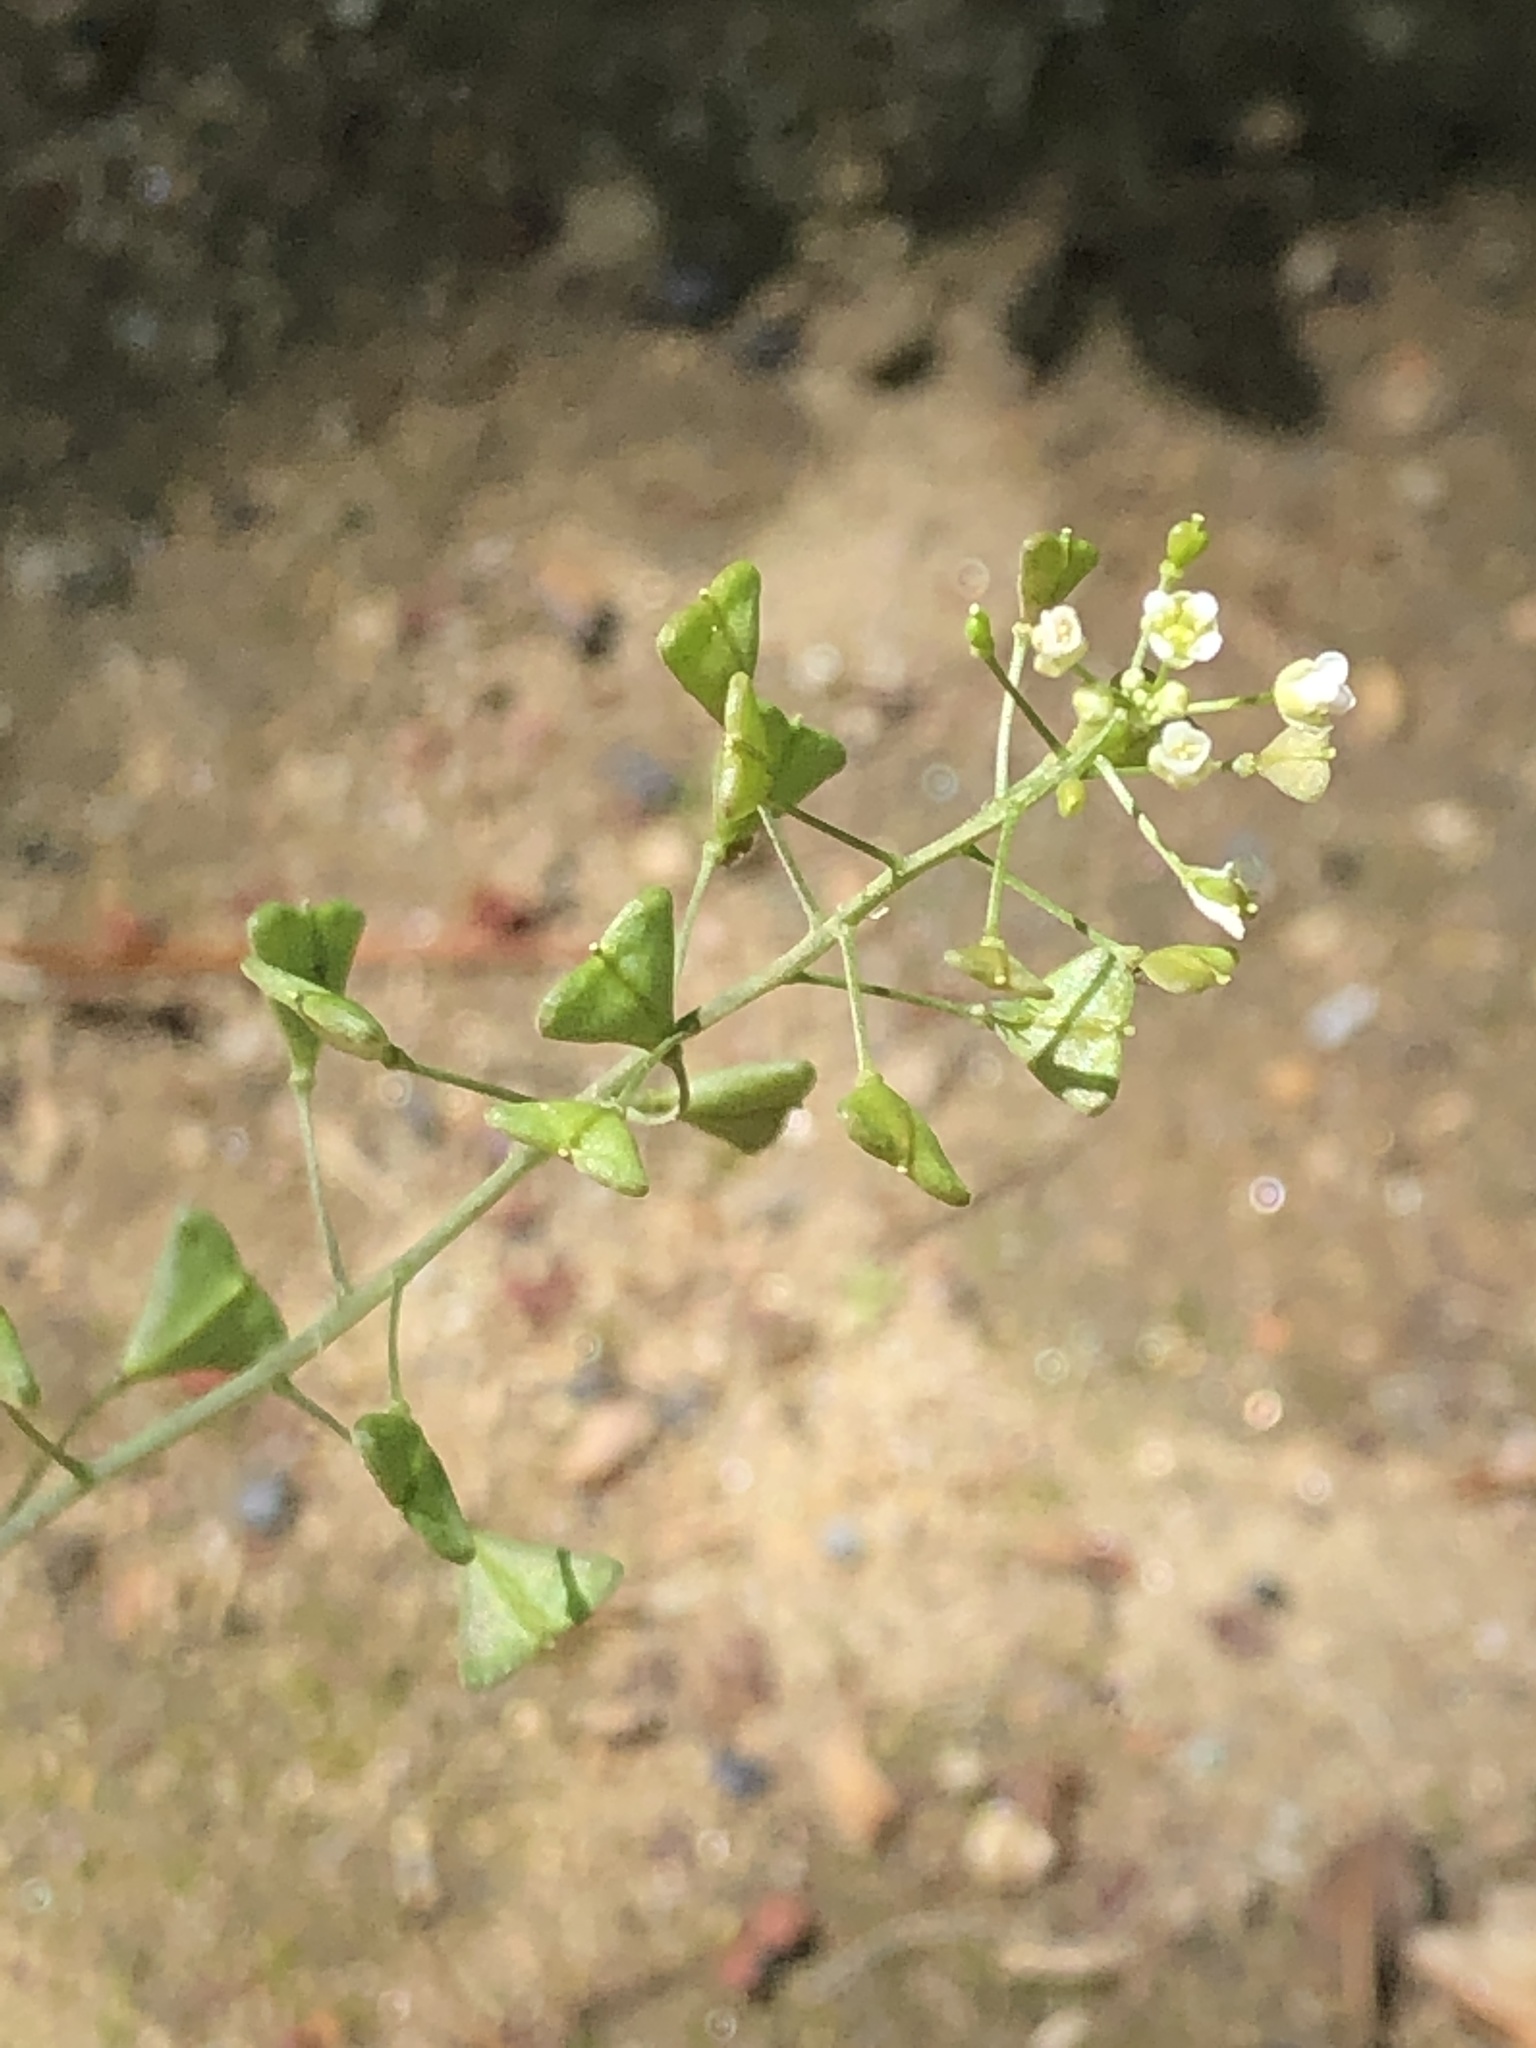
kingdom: Plantae
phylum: Tracheophyta
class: Magnoliopsida
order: Brassicales
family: Brassicaceae
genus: Capsella
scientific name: Capsella bursa-pastoris
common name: Shepherd's purse
